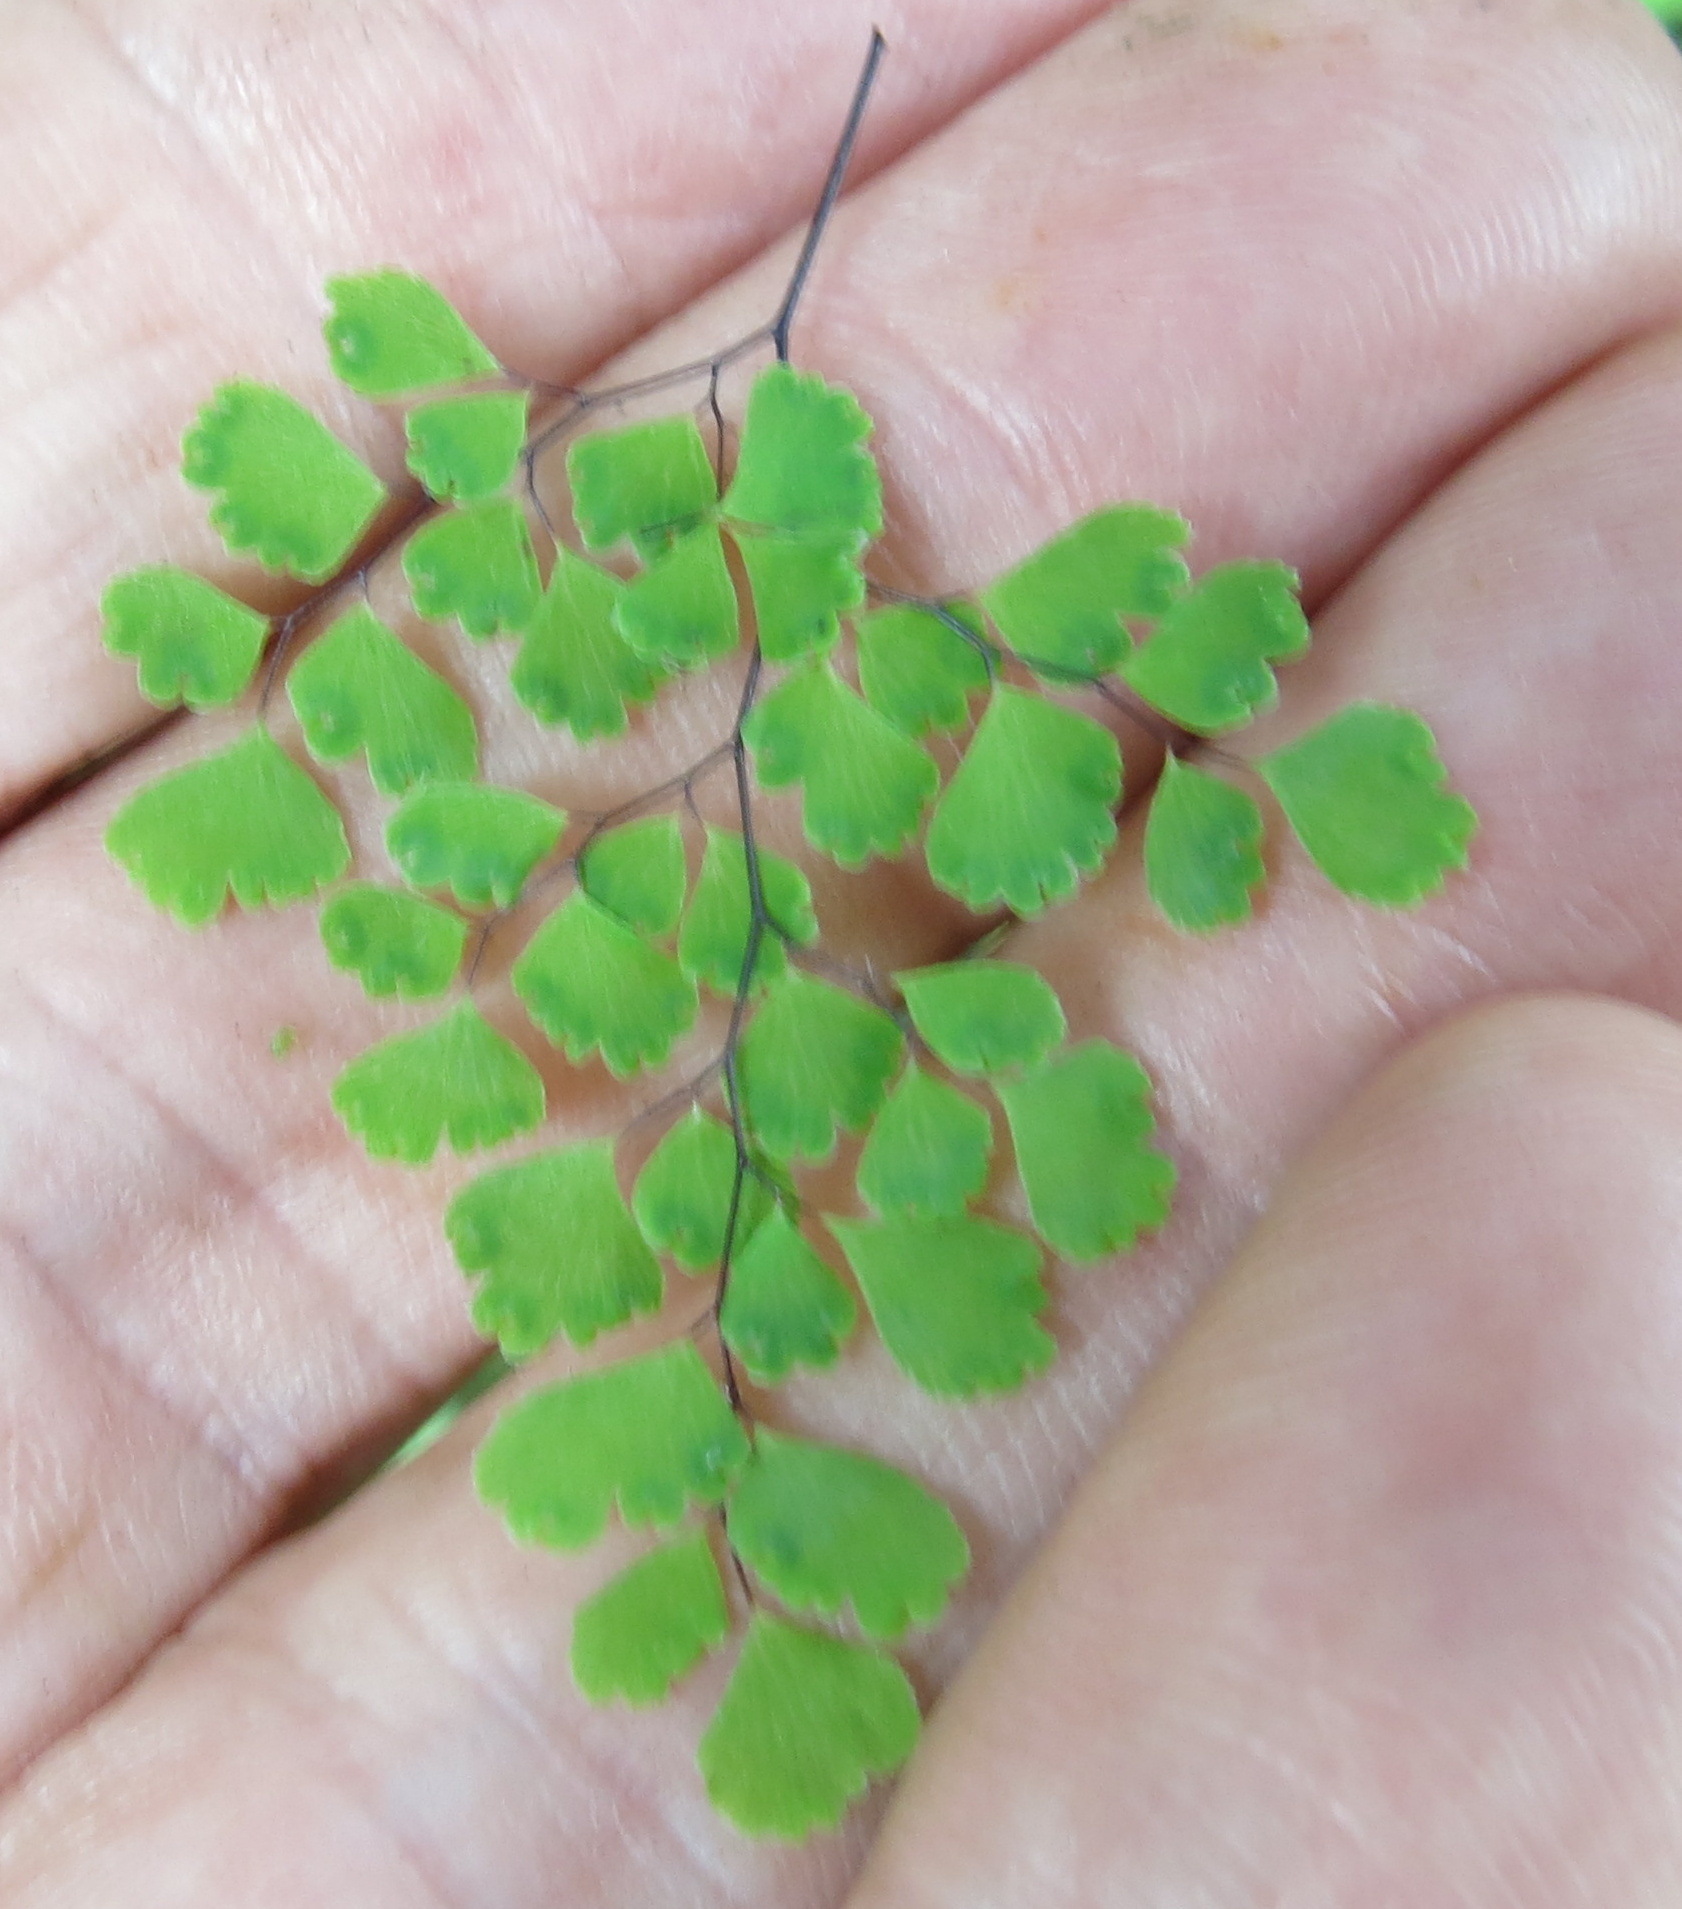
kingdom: Plantae
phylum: Tracheophyta
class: Polypodiopsida
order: Polypodiales
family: Pteridaceae
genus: Adiantum
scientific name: Adiantum raddianum
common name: Delta maidenhair fern
